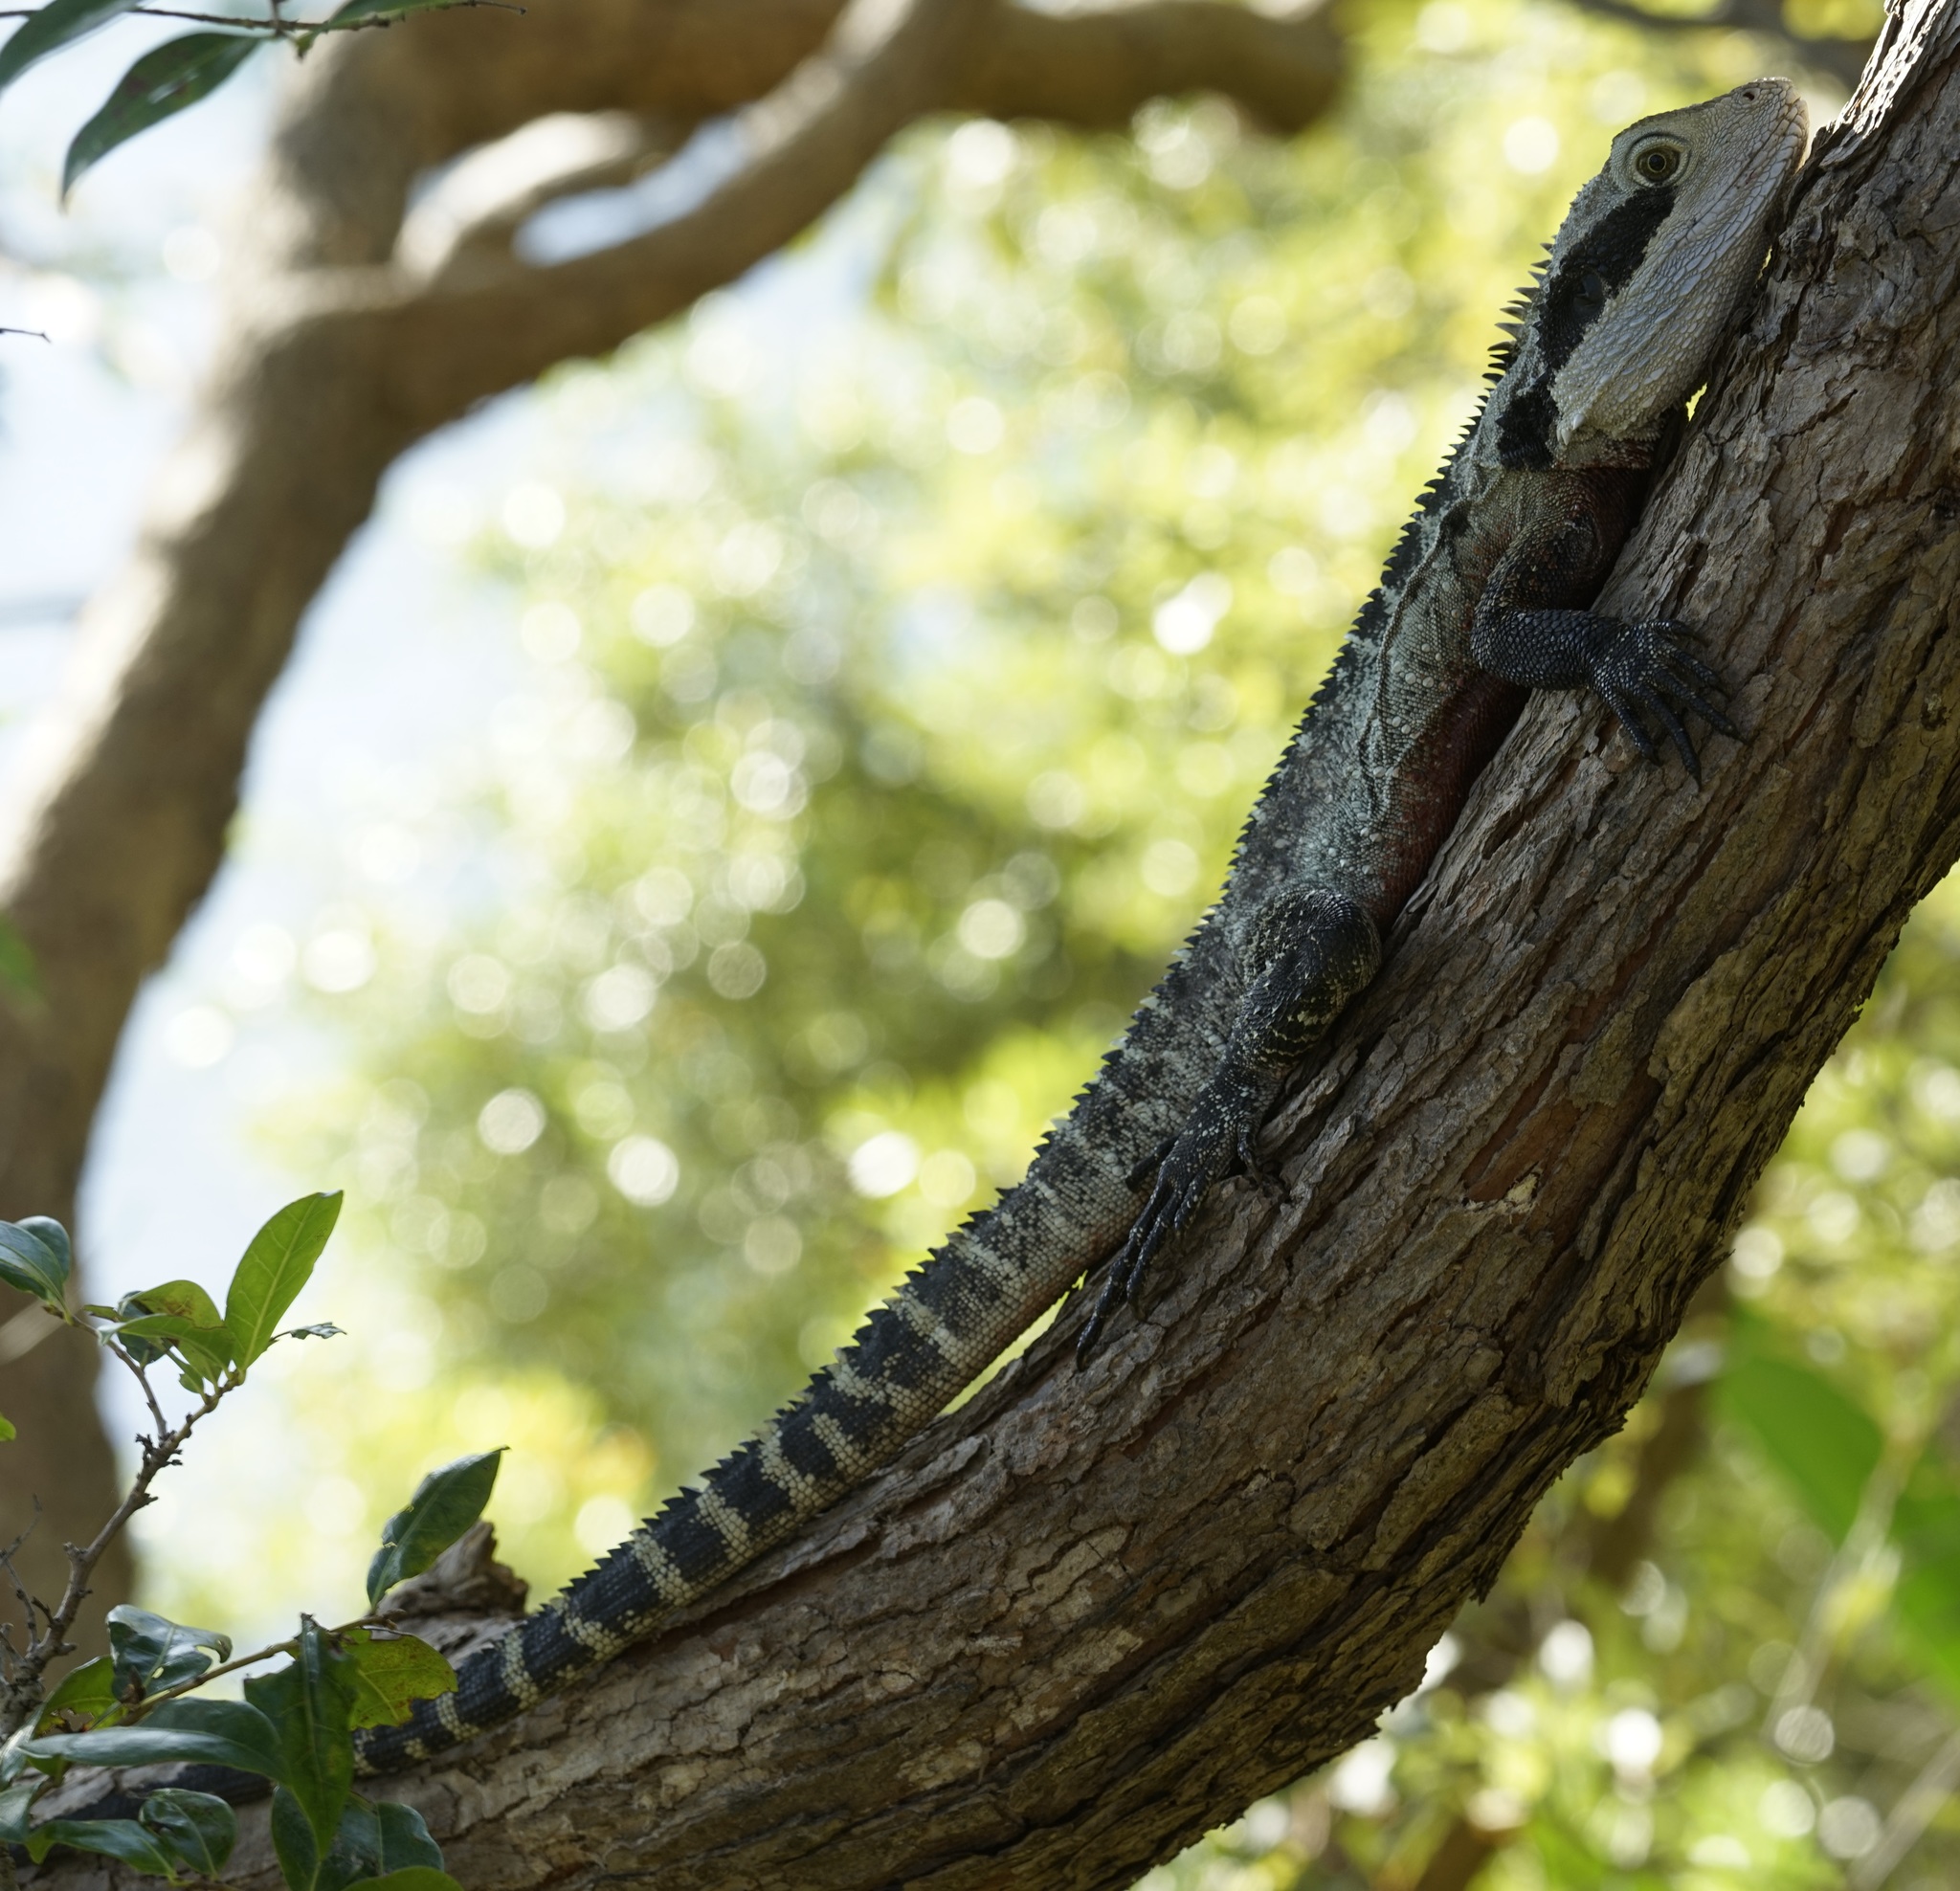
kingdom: Animalia
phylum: Chordata
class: Squamata
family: Agamidae
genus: Intellagama
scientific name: Intellagama lesueurii
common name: Eastern water dragon
